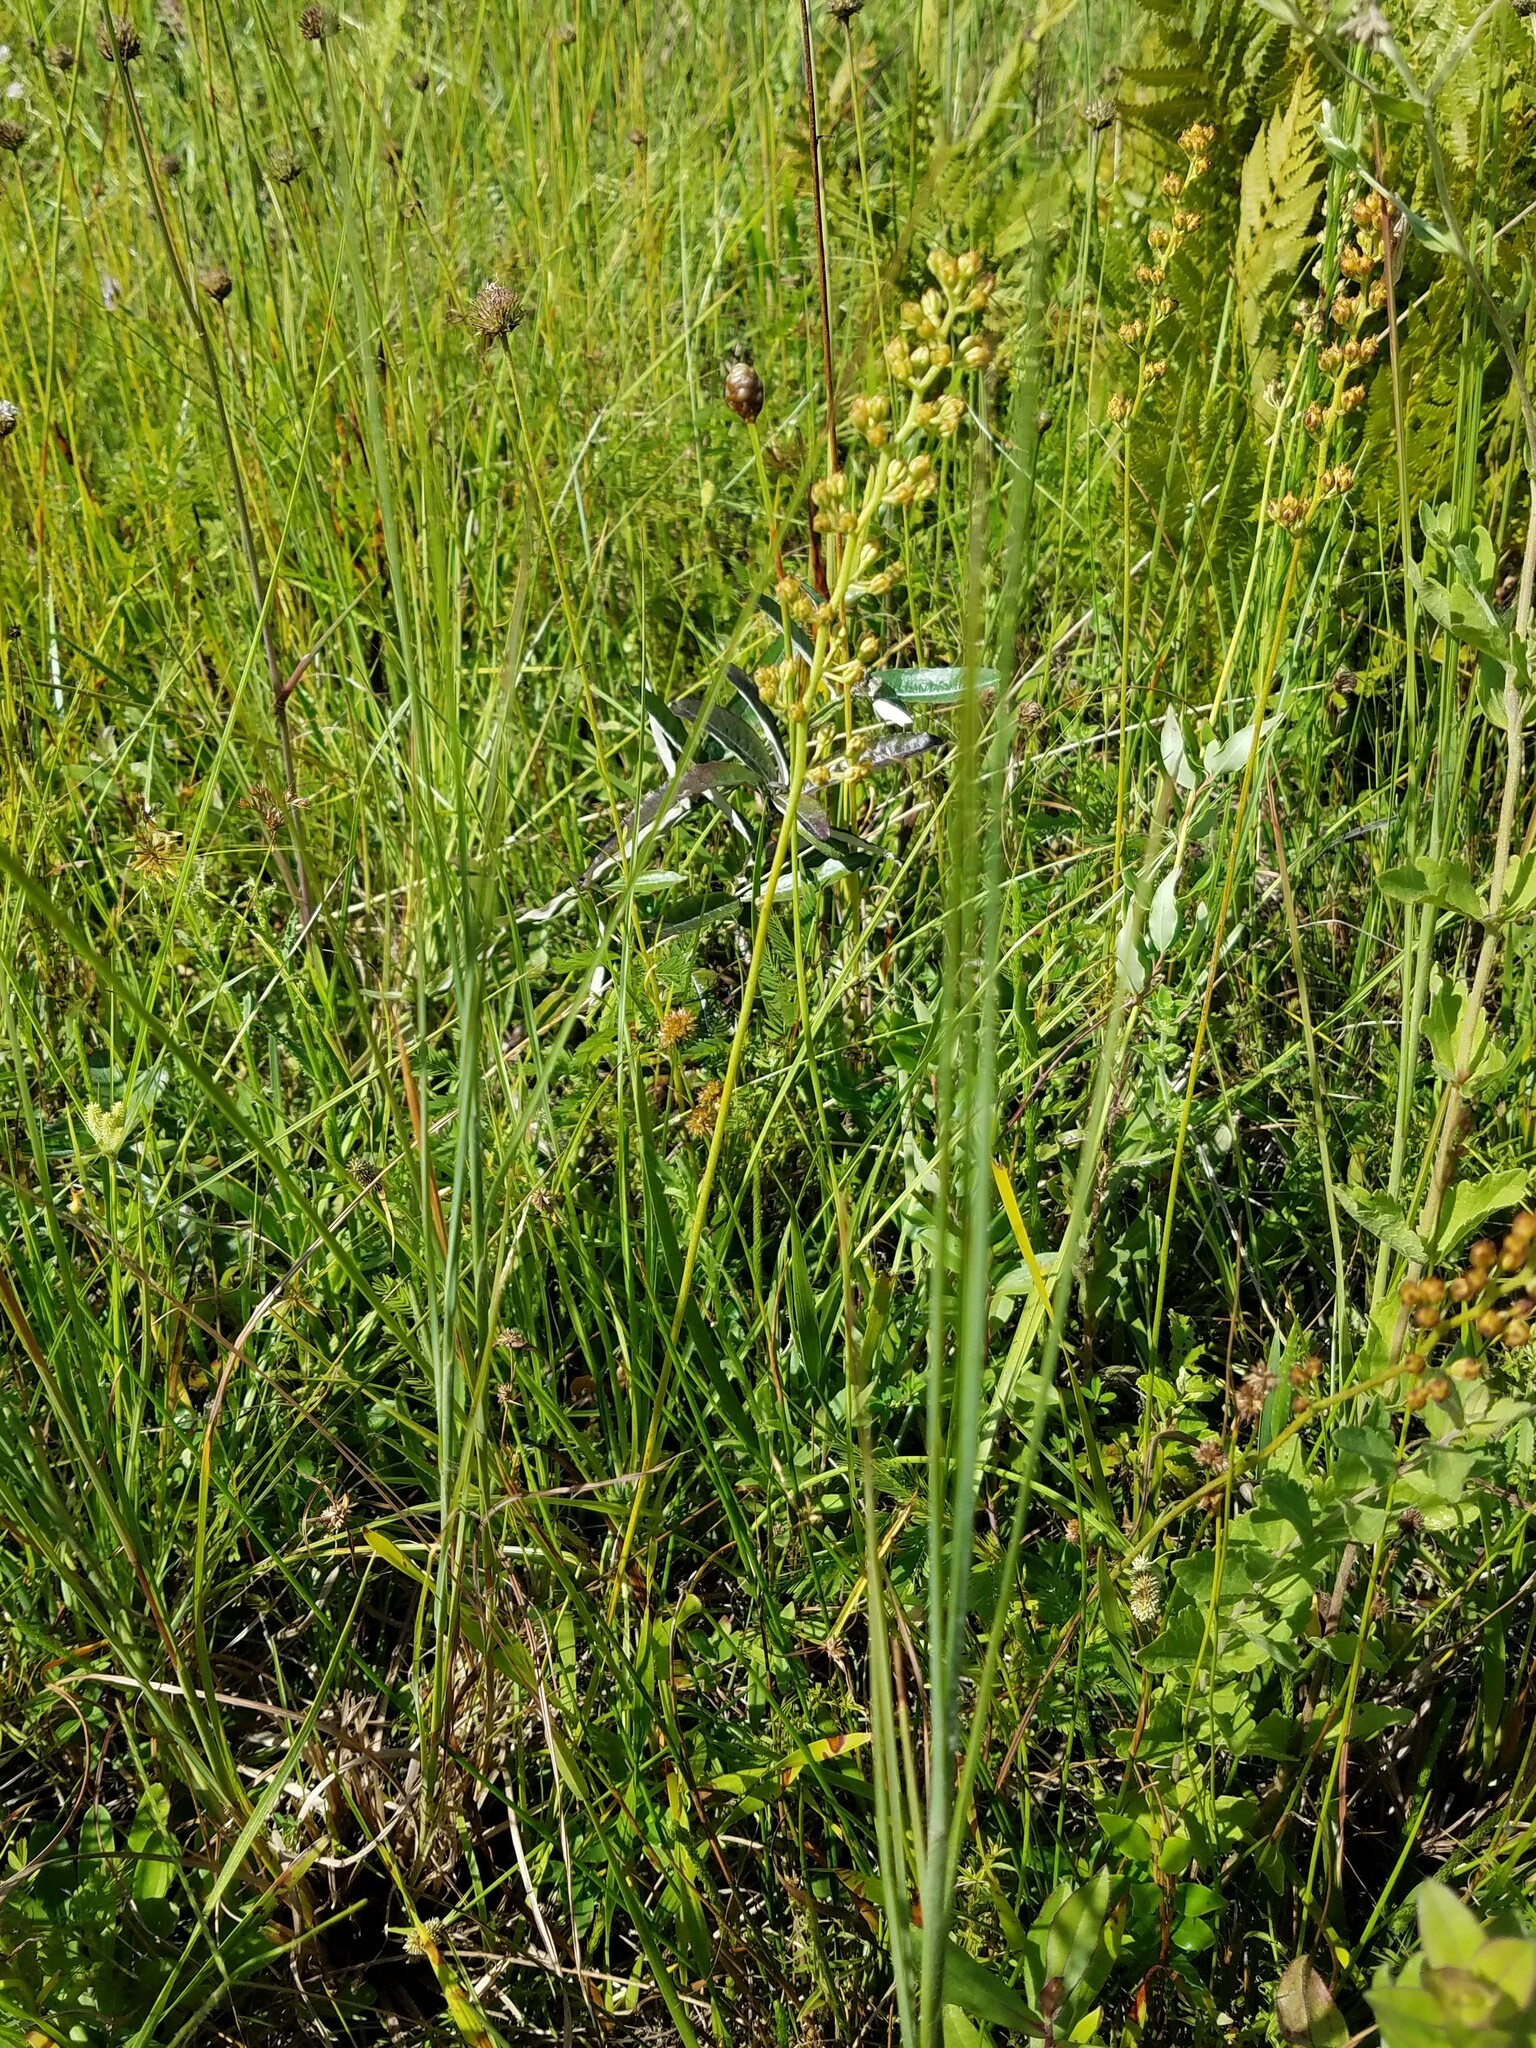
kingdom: Plantae
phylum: Tracheophyta
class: Liliopsida
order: Alismatales
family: Tofieldiaceae
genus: Triantha
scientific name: Triantha racemosa
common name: Coastal false asphodel
